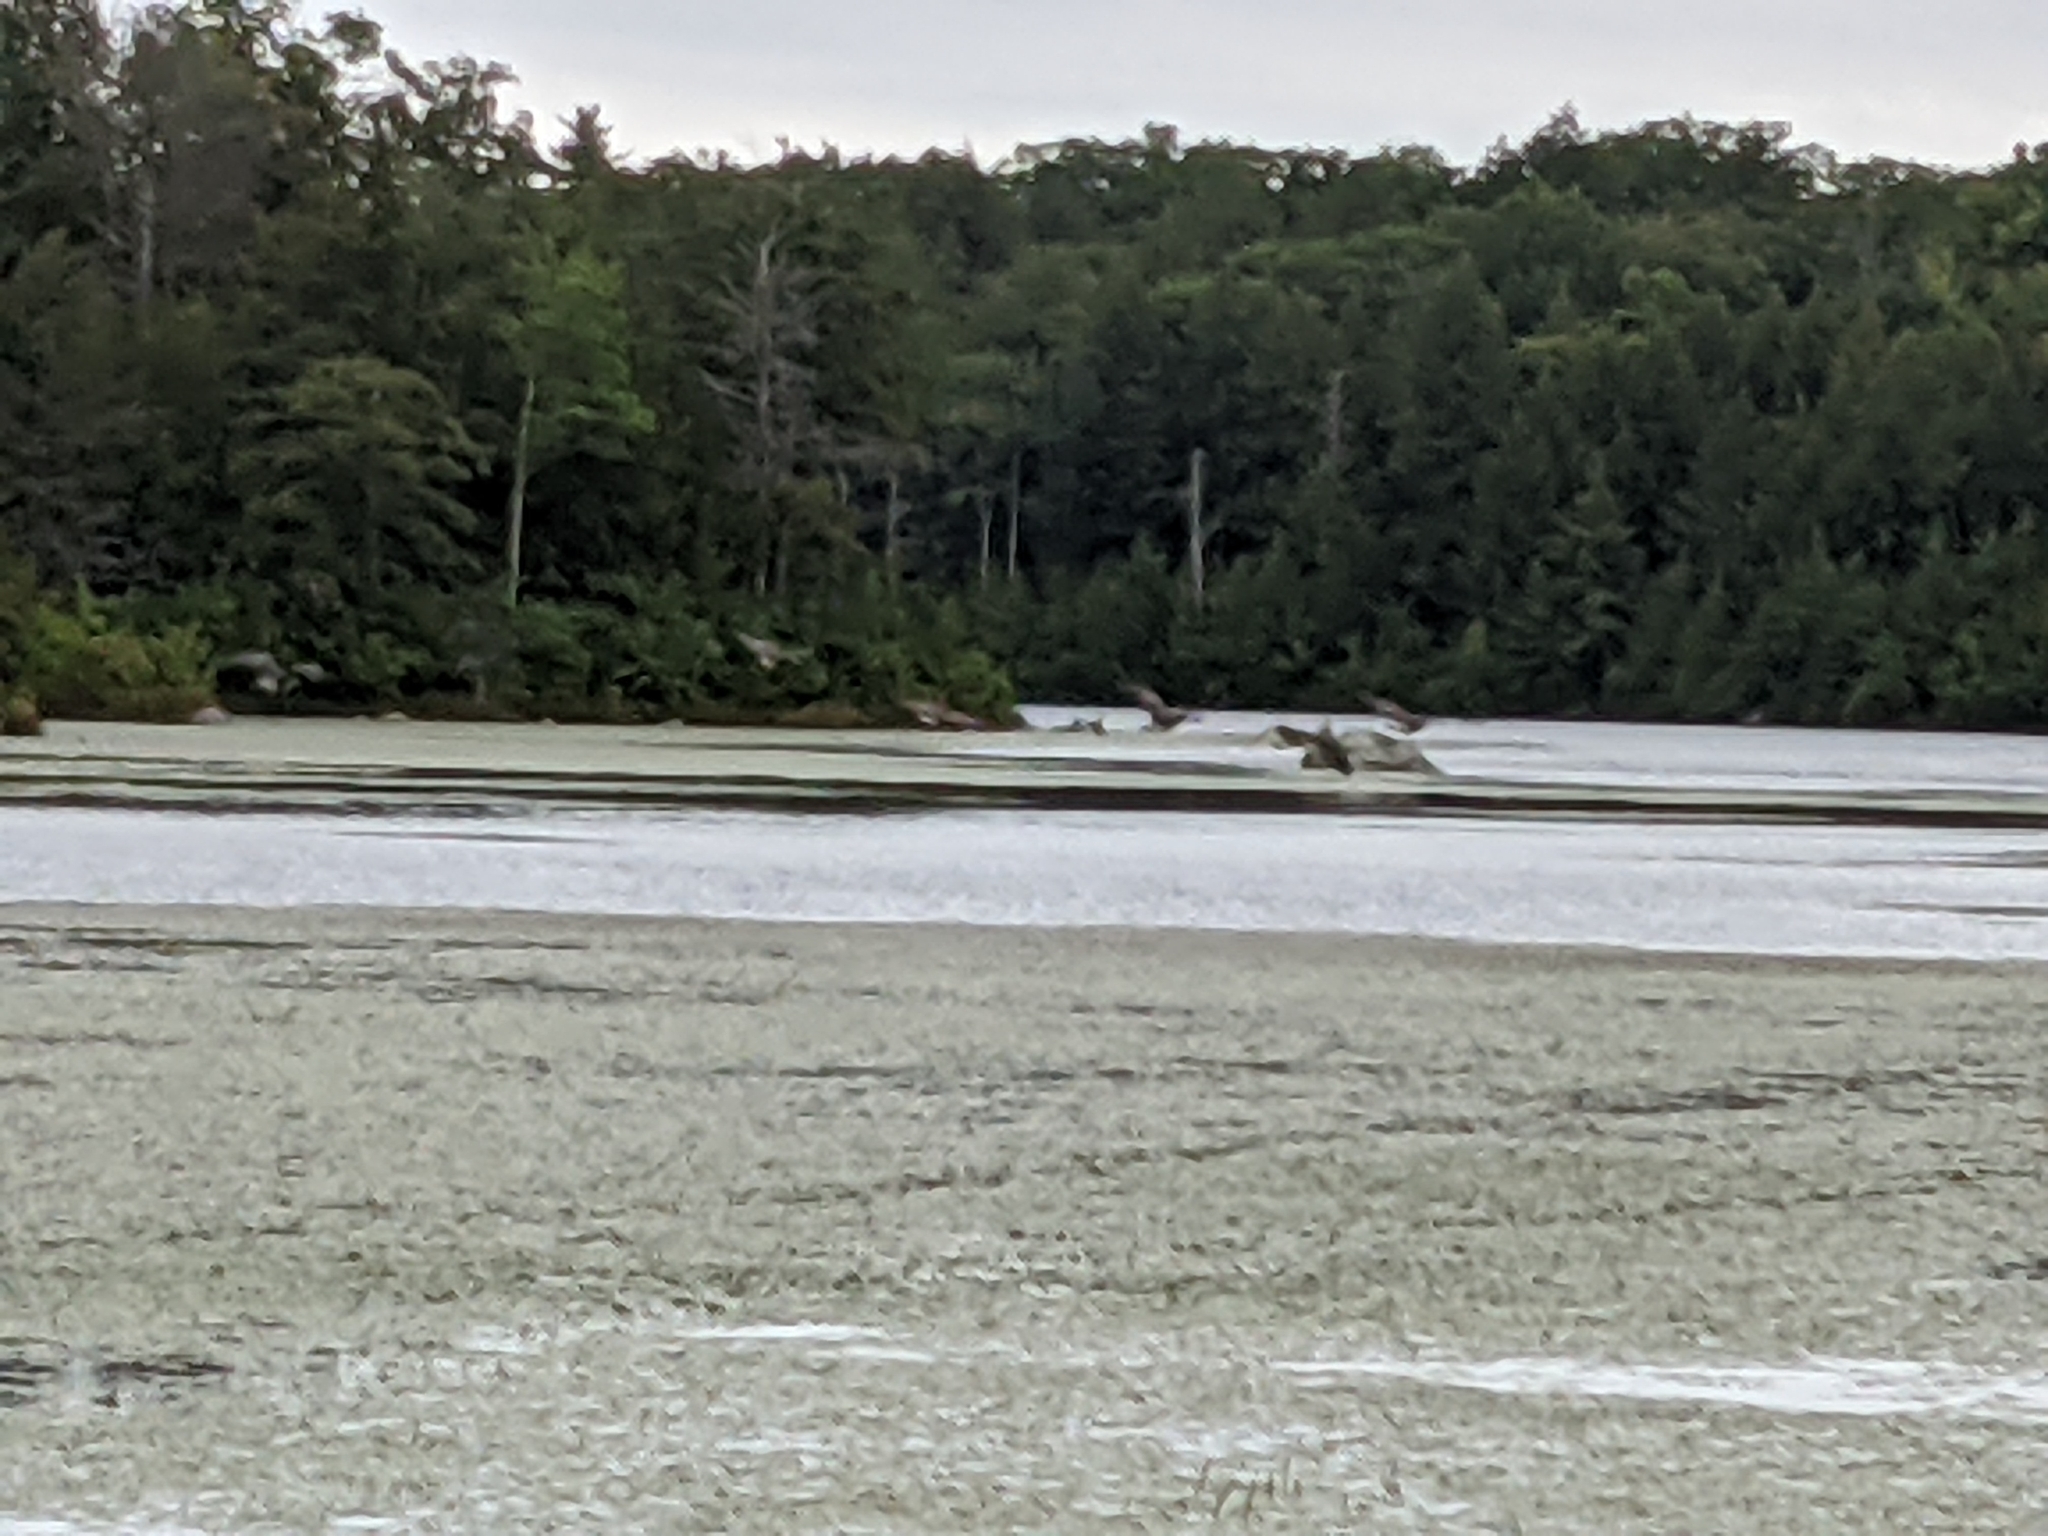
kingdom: Animalia
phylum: Chordata
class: Aves
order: Anseriformes
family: Anatidae
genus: Branta
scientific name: Branta canadensis
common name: Canada goose
